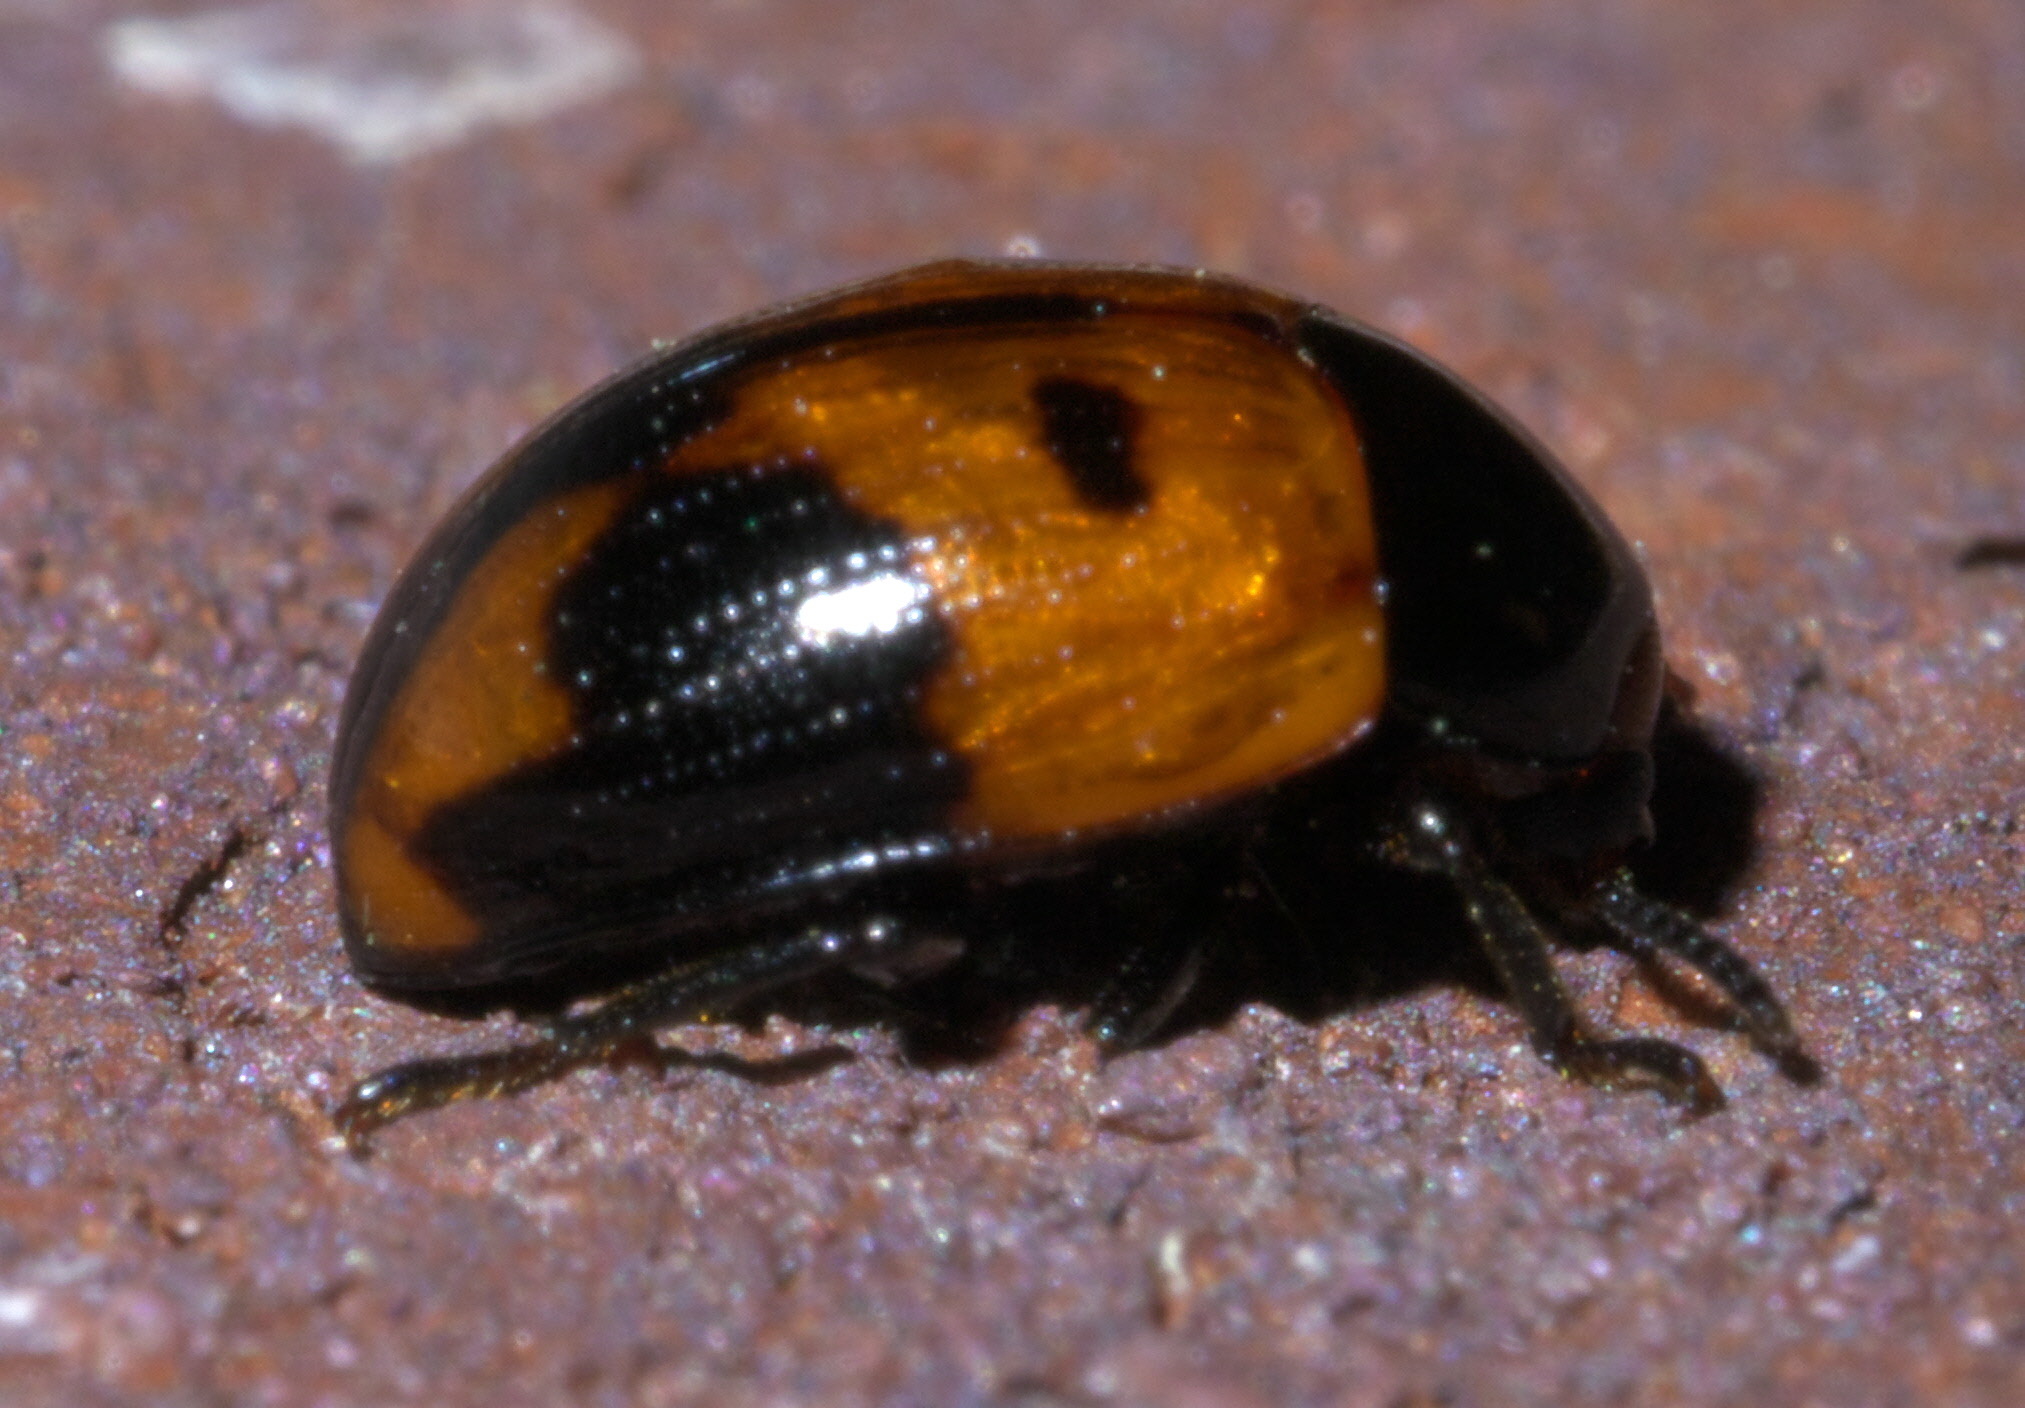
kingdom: Animalia
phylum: Arthropoda
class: Insecta
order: Coleoptera
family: Tenebrionidae
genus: Diaperis
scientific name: Diaperis maculata
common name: Darkling beetle
